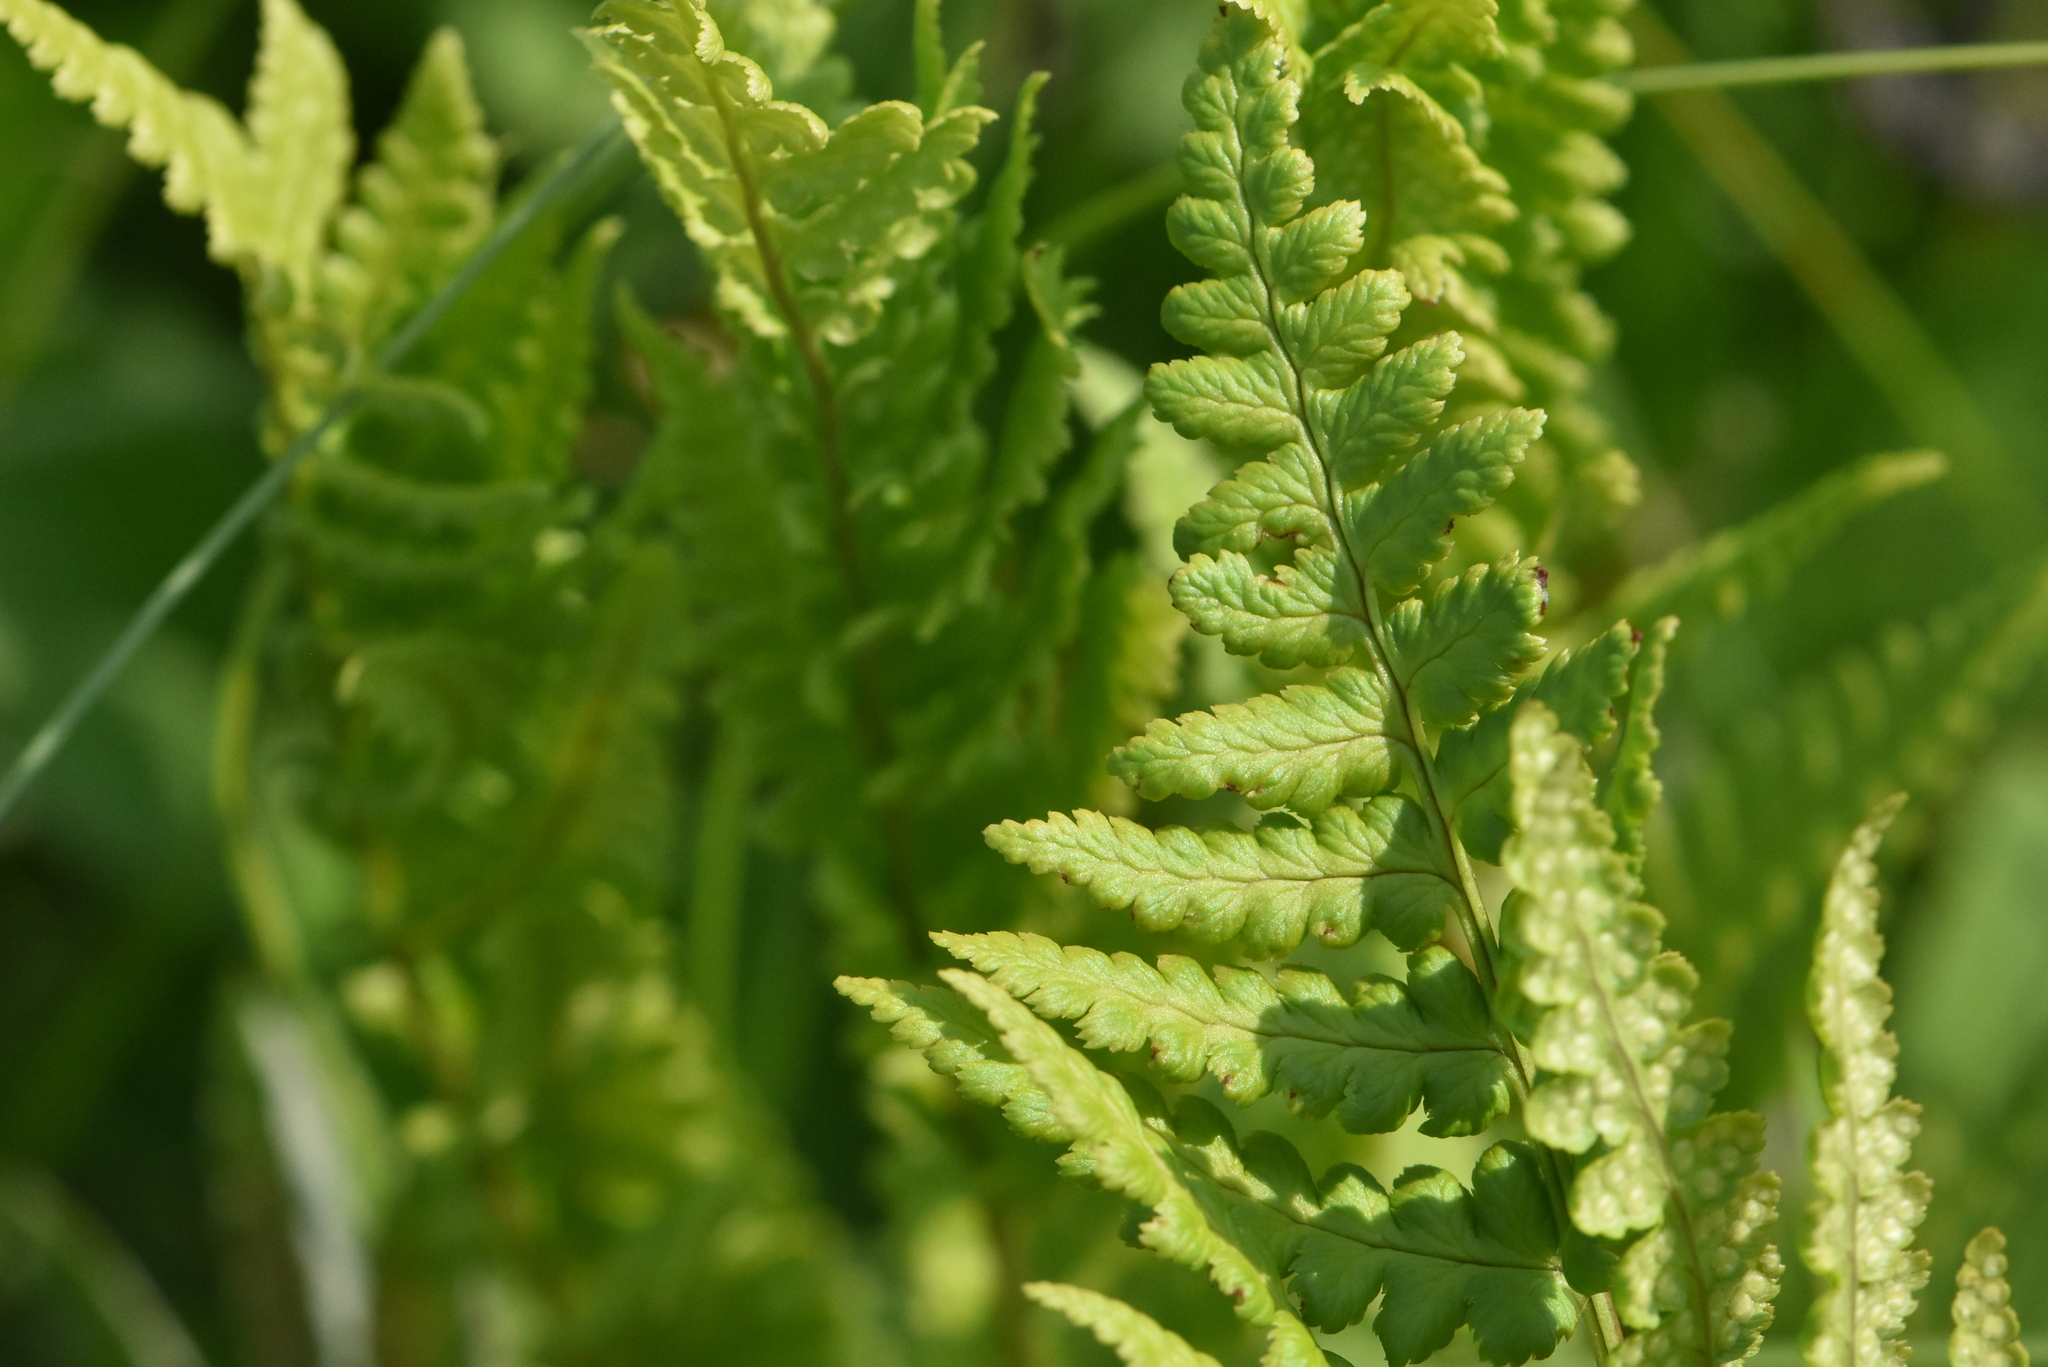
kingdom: Plantae
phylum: Tracheophyta
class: Polypodiopsida
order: Polypodiales
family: Dryopteridaceae
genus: Dryopteris
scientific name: Dryopteris cristata
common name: Crested wood fern
